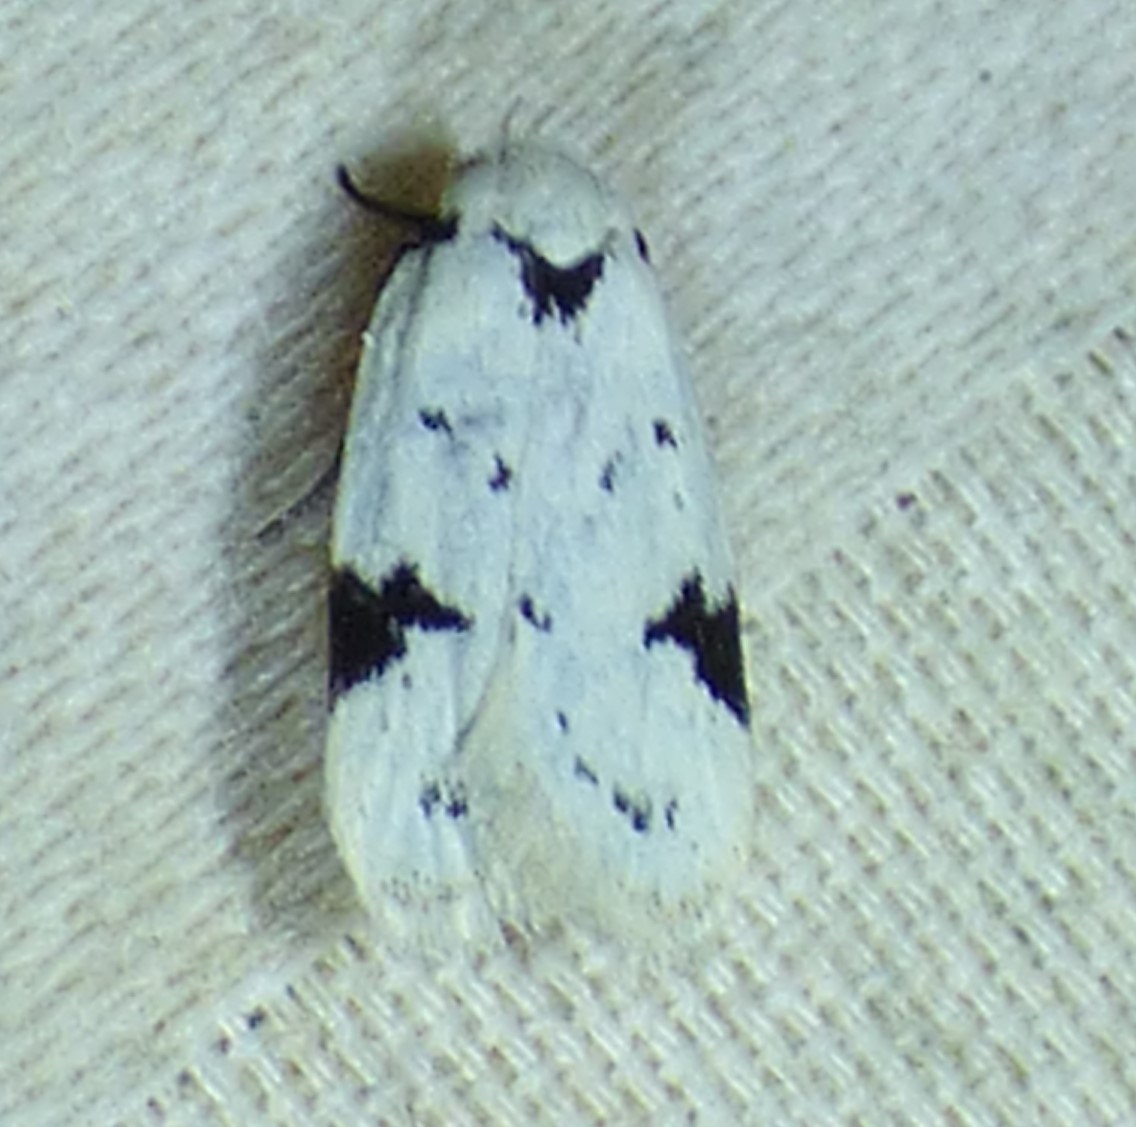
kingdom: Animalia
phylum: Arthropoda
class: Insecta
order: Lepidoptera
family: Oecophoridae
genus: Inga
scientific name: Inga sparsiciliella
